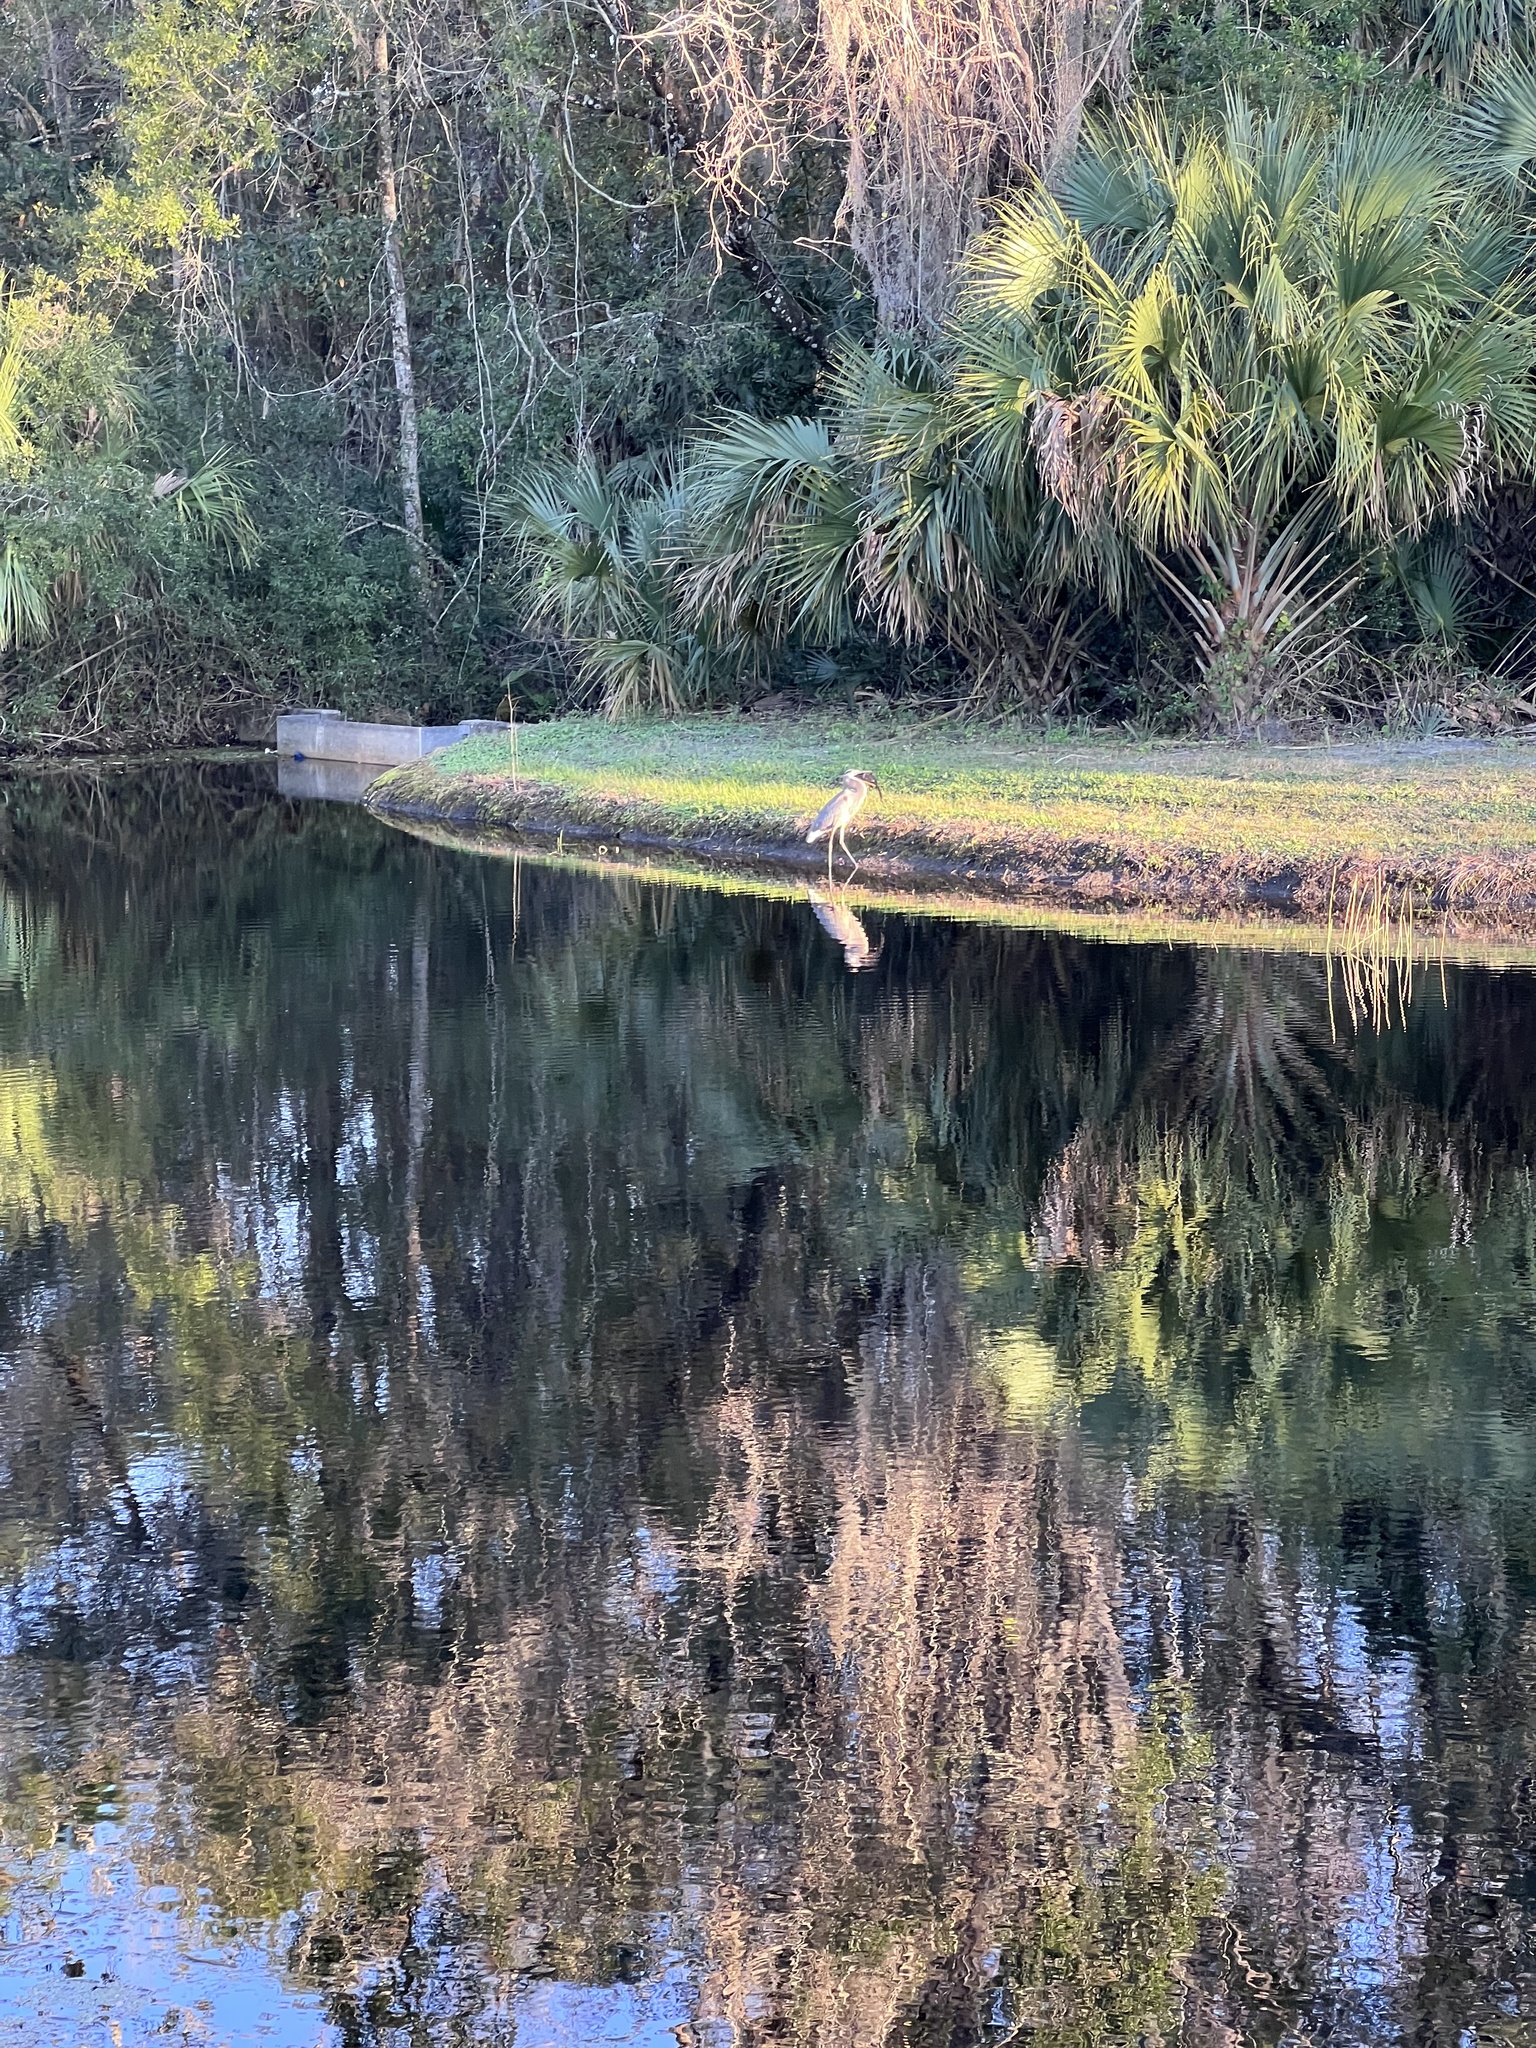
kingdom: Animalia
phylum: Chordata
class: Aves
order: Pelecaniformes
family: Ardeidae
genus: Ardea
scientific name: Ardea herodias
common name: Great blue heron
